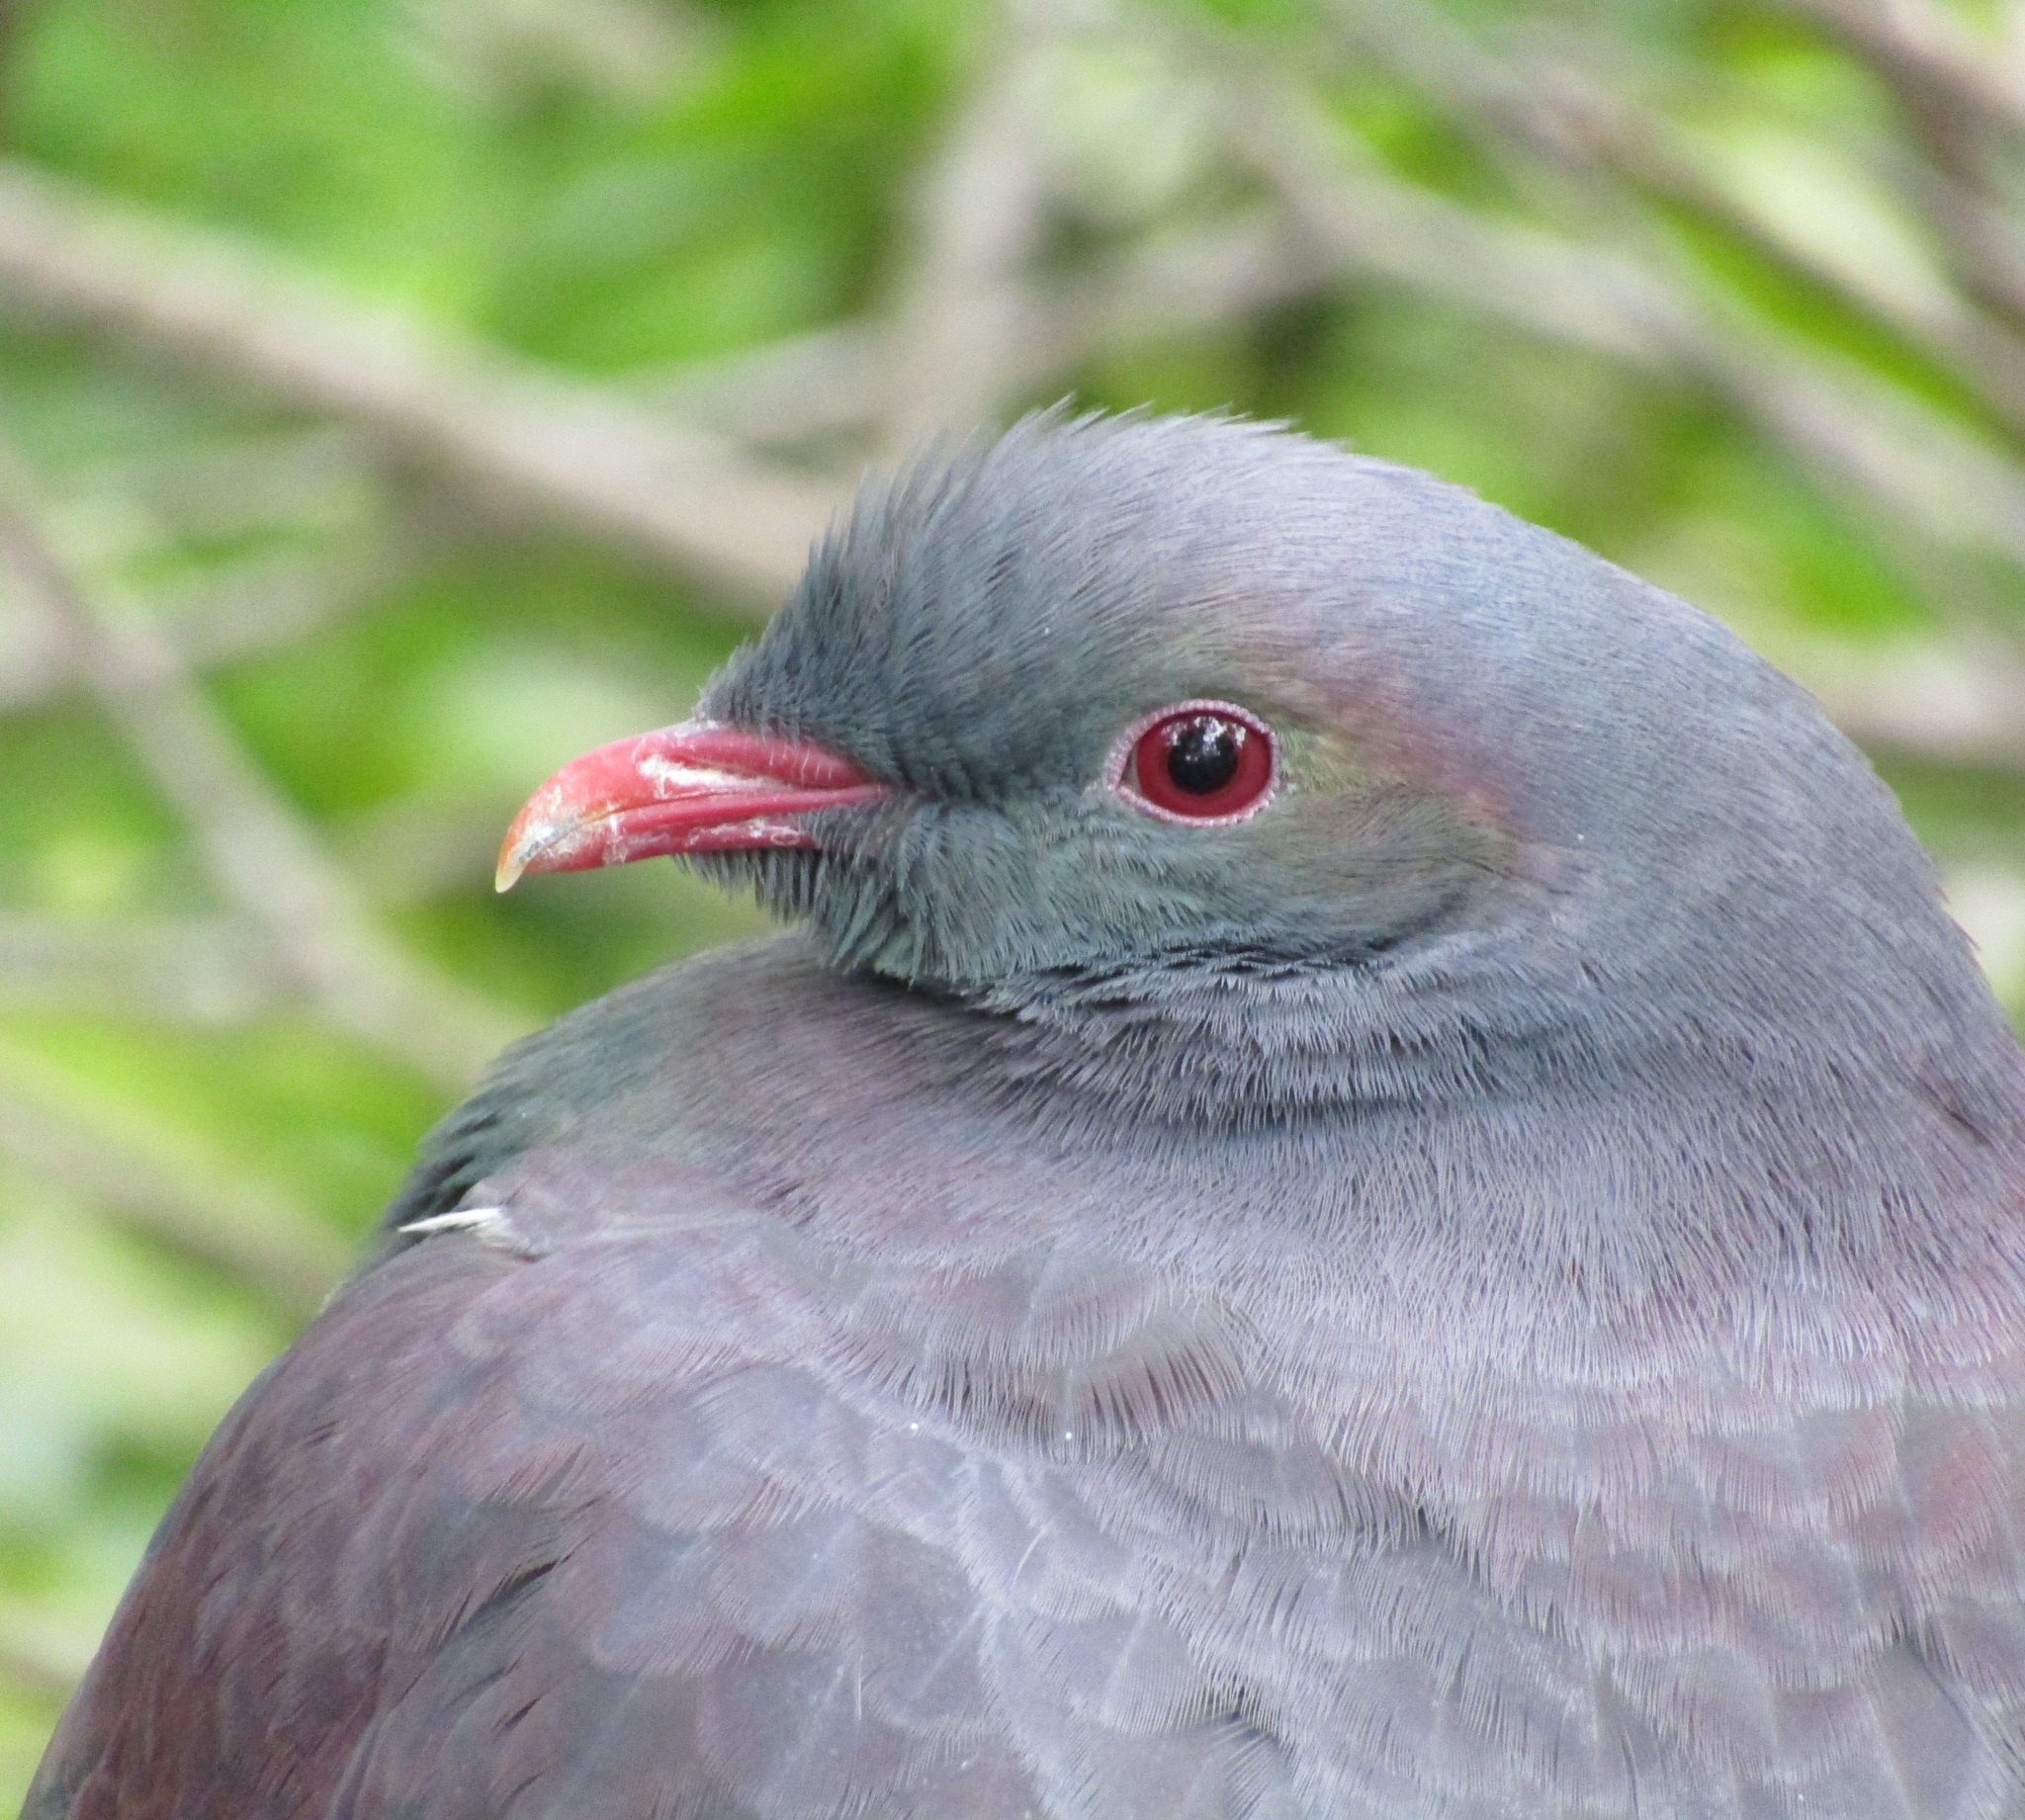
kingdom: Animalia
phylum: Chordata
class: Aves
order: Columbiformes
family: Columbidae
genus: Hemiphaga
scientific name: Hemiphaga novaeseelandiae
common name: New zealand pigeon
